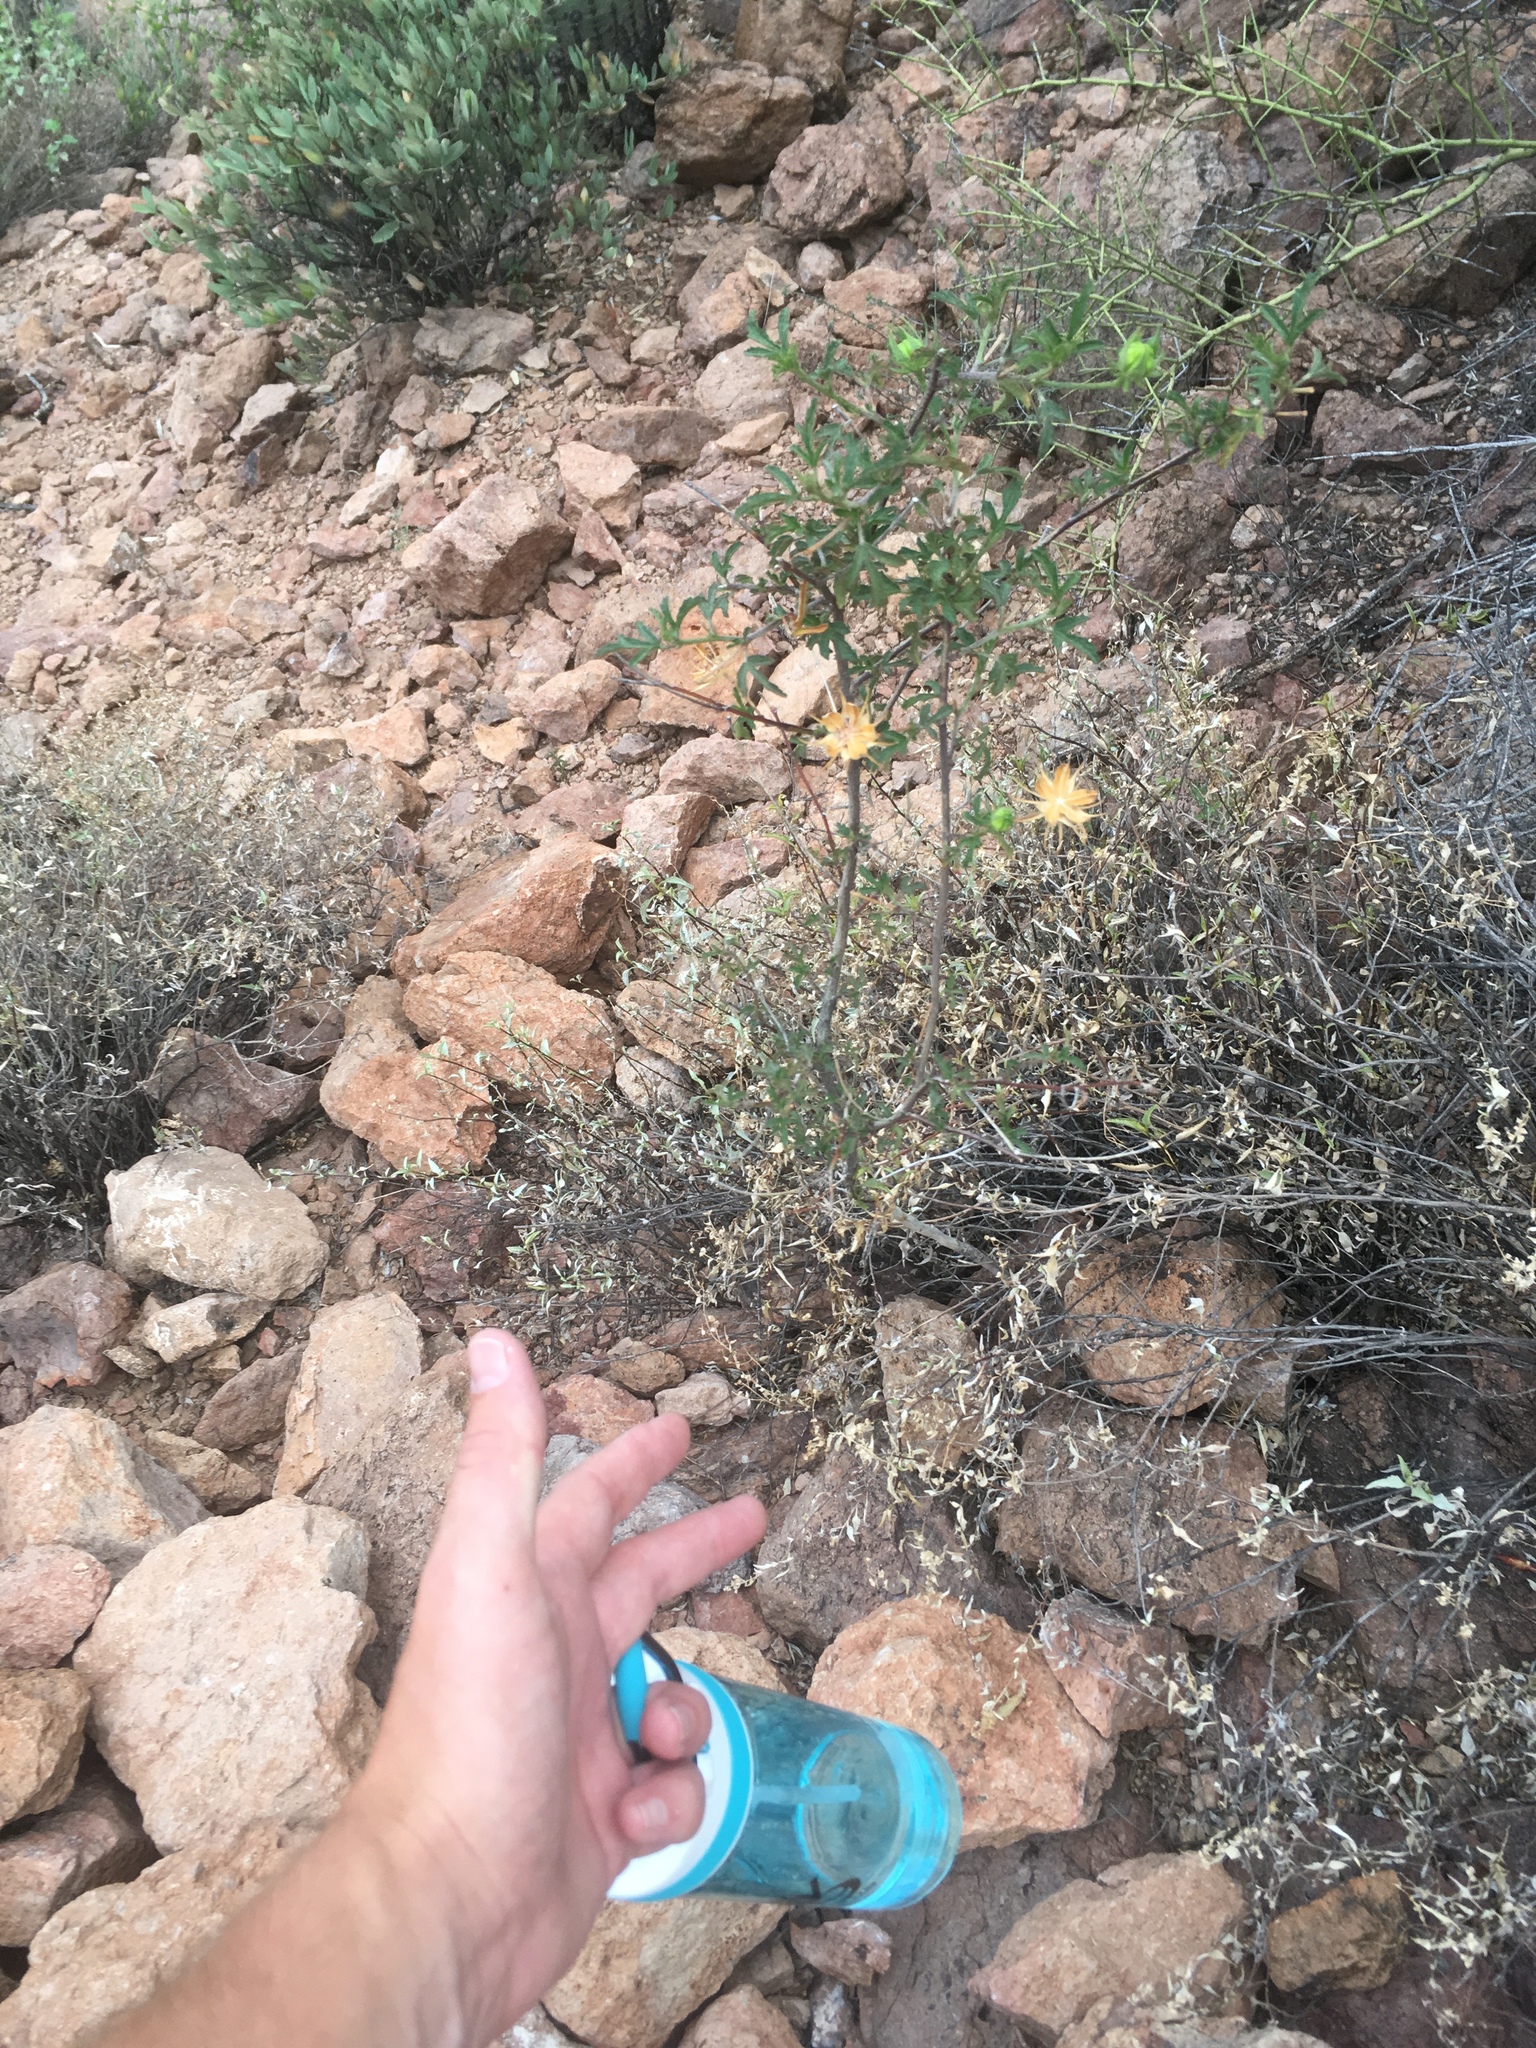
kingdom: Plantae
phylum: Tracheophyta
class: Magnoliopsida
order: Malvales
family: Malvaceae
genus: Hibiscus
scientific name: Hibiscus coulteri
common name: Desert rose-mallow
